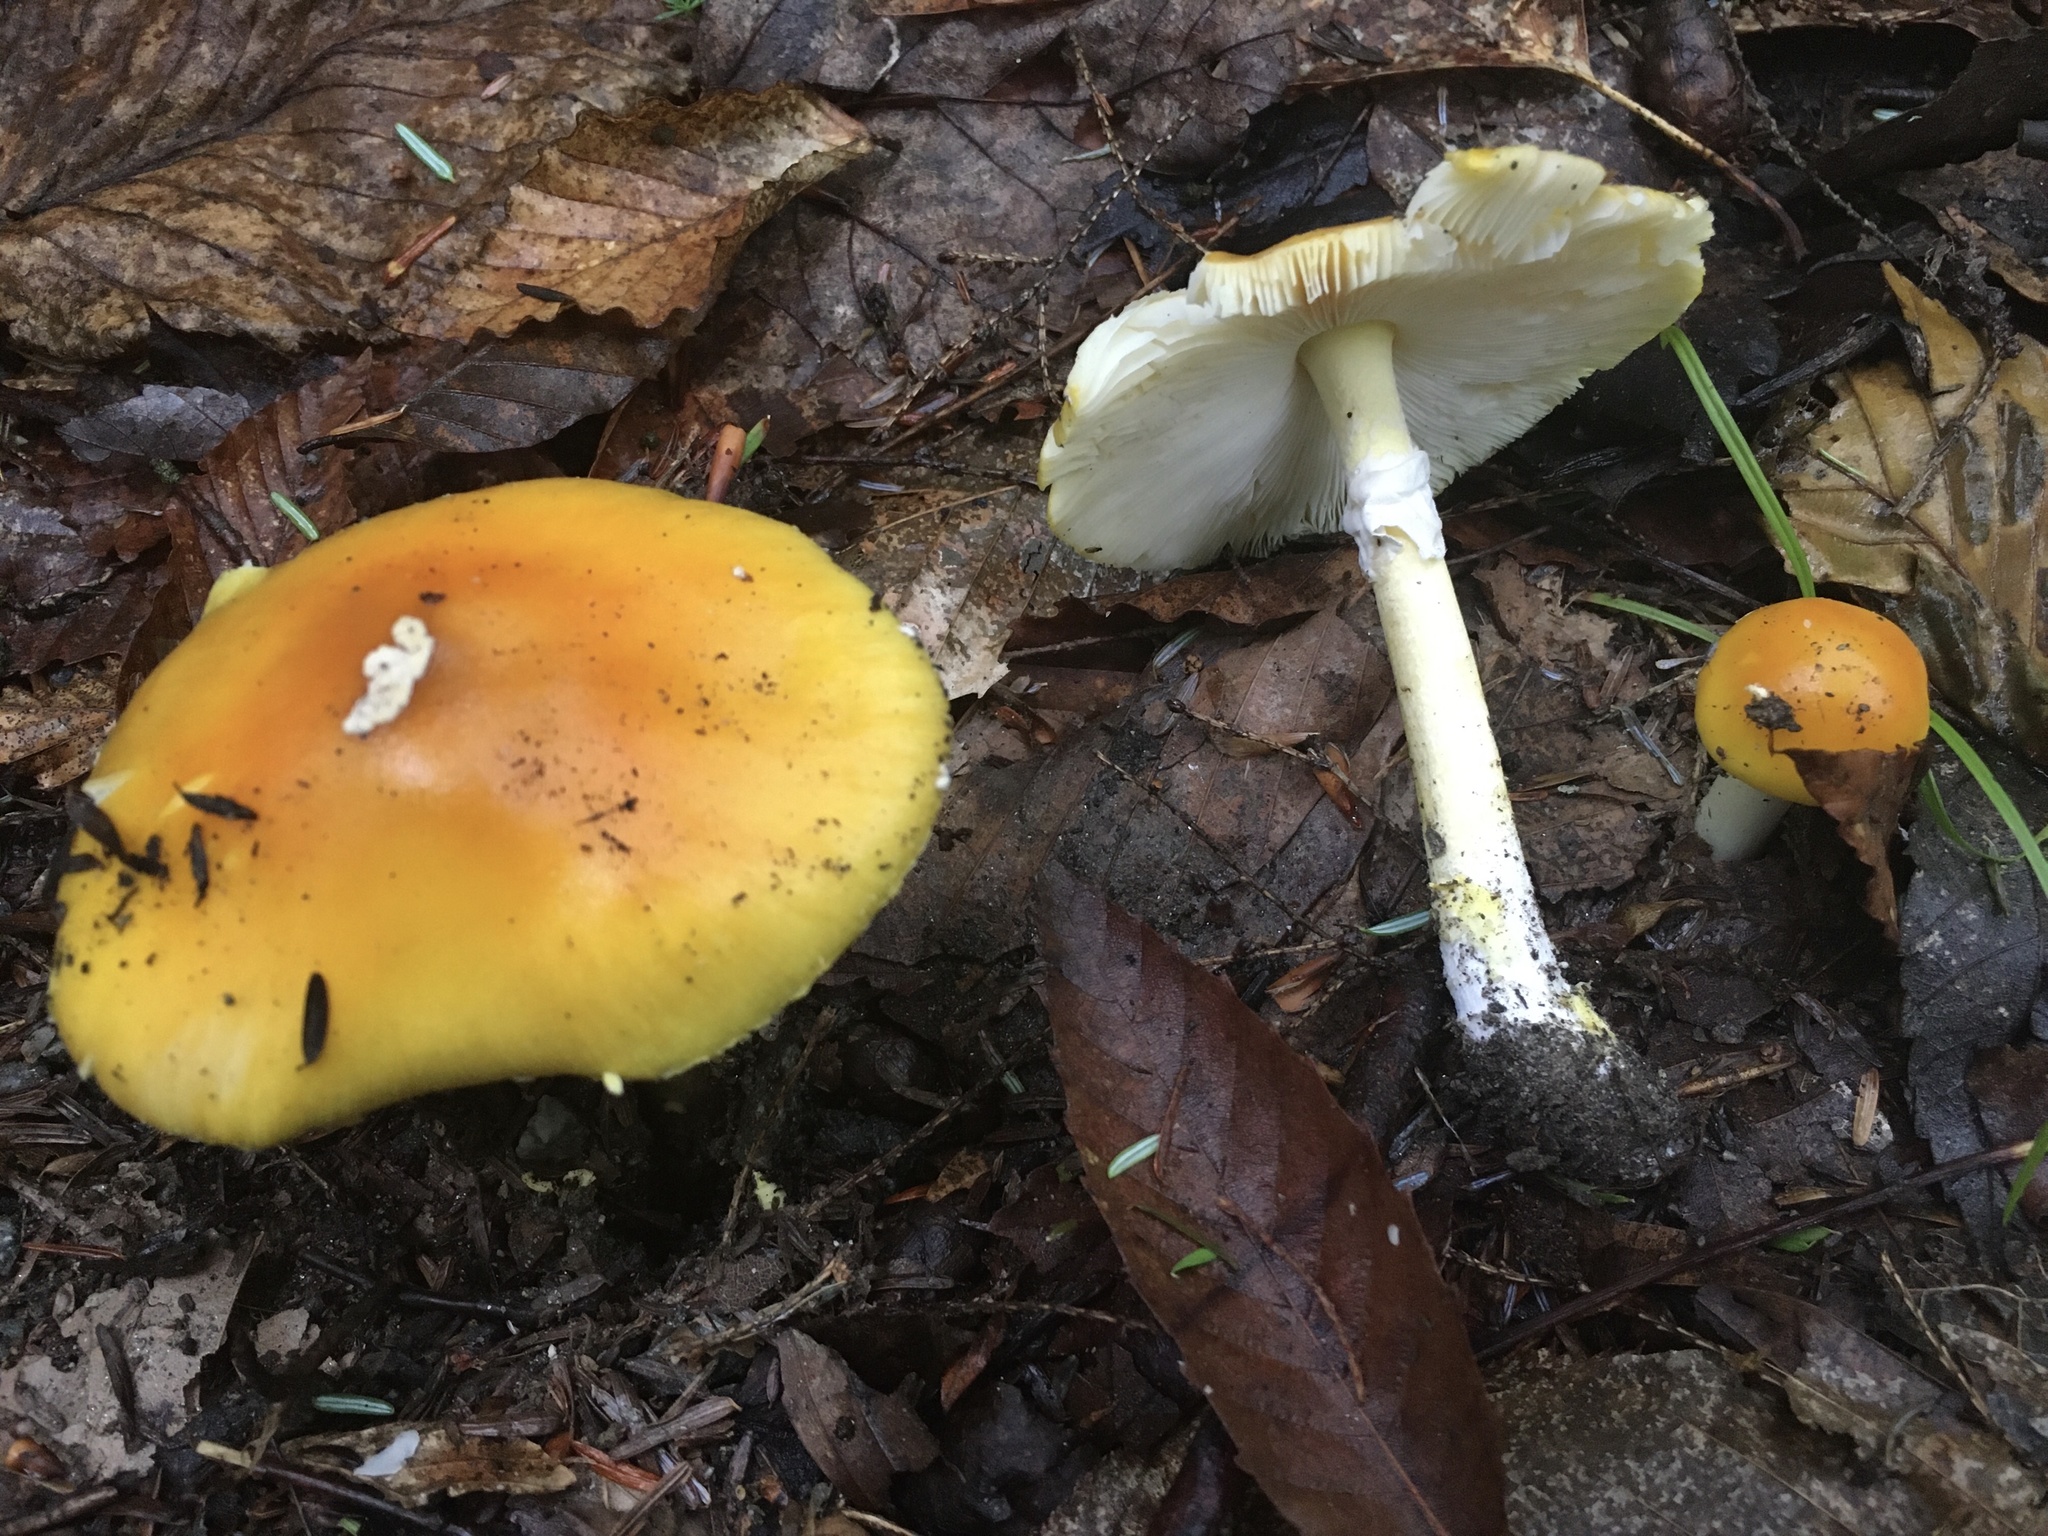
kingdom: Fungi
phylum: Basidiomycota
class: Agaricomycetes
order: Agaricales
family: Amanitaceae
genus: Amanita
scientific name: Amanita flavoconia
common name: Yellow patches
